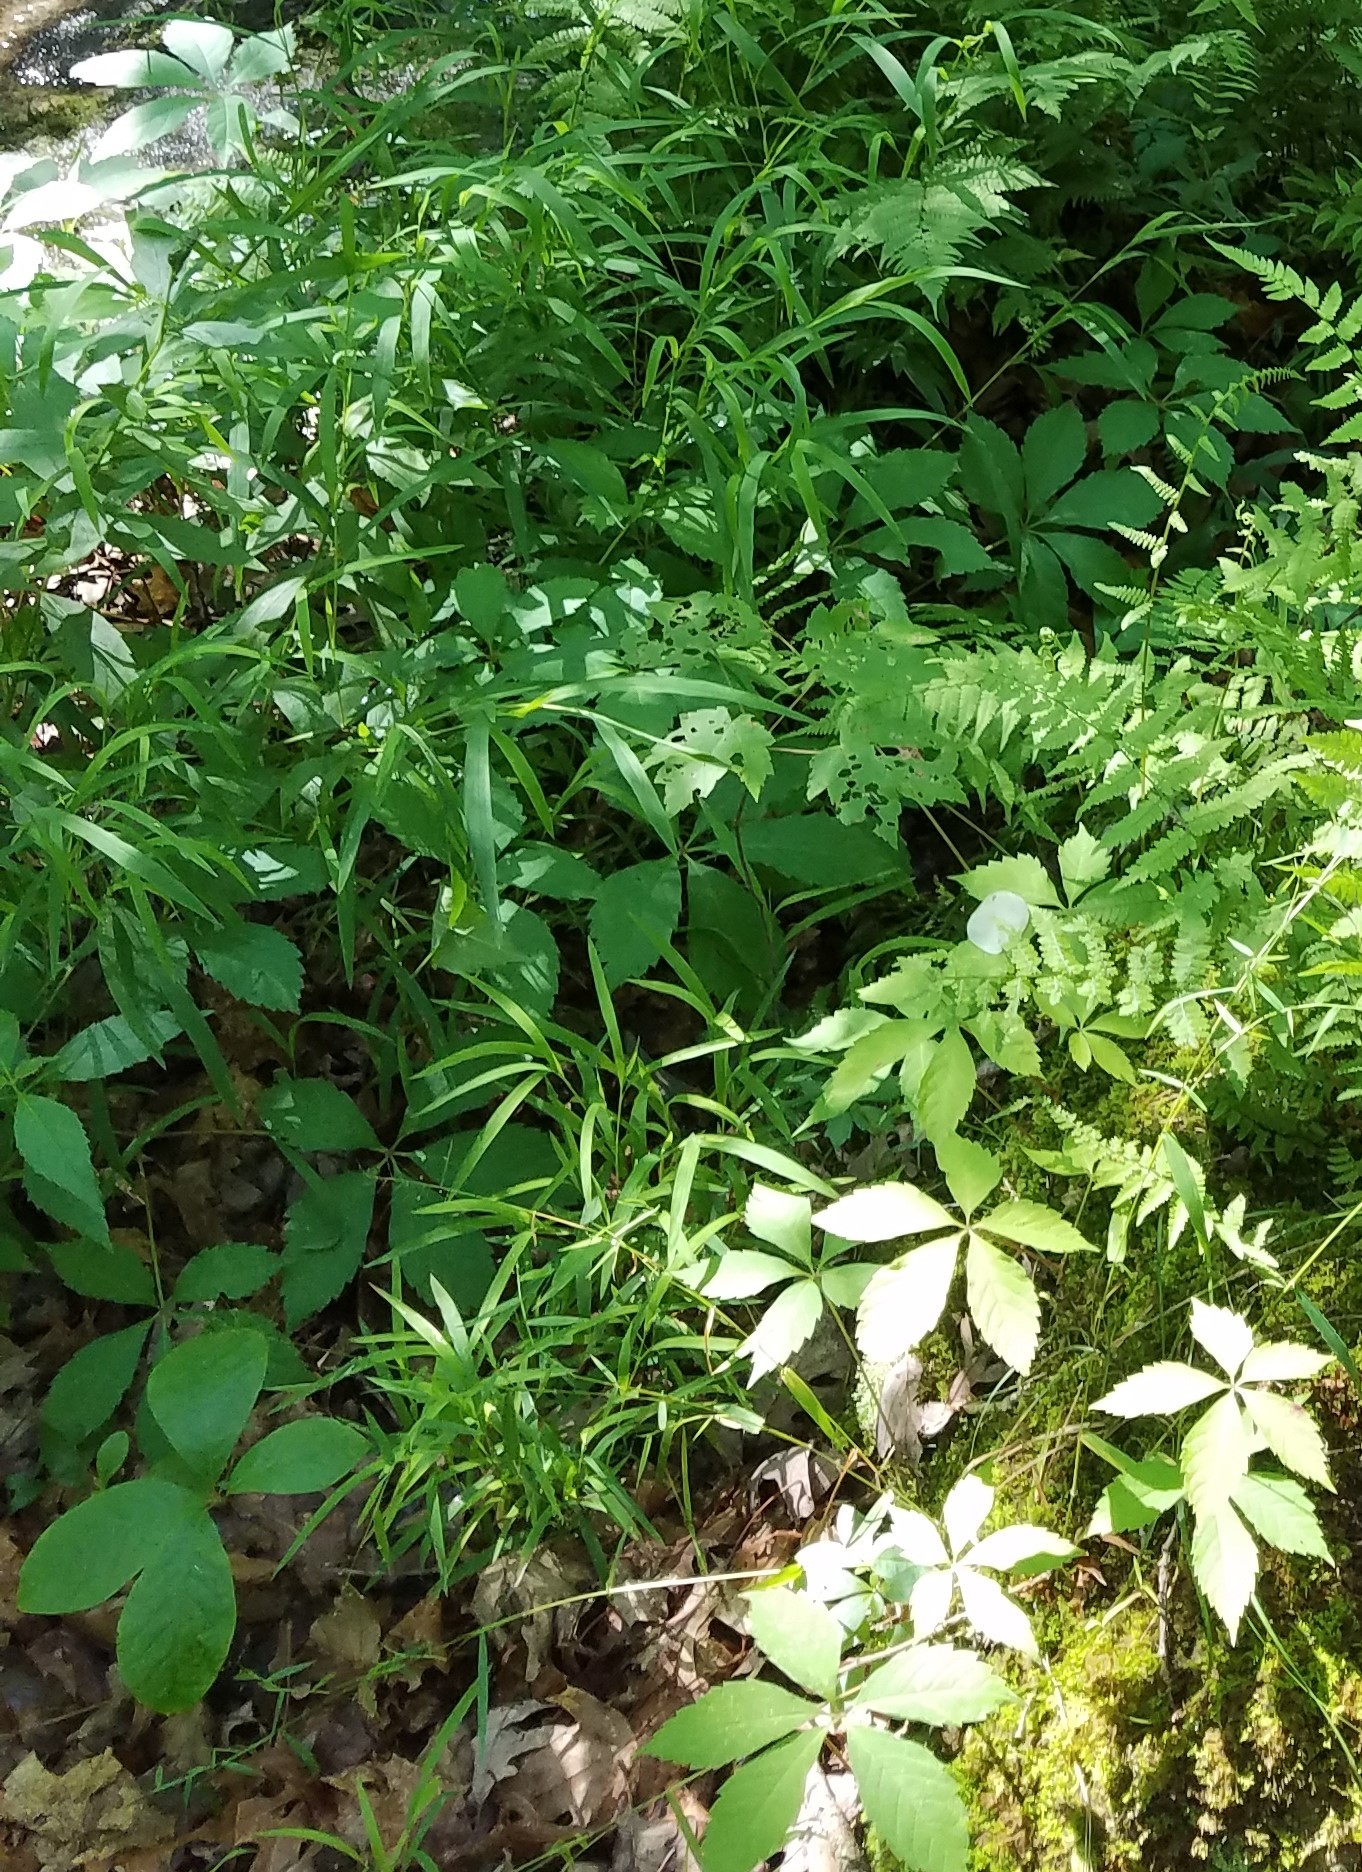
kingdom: Plantae
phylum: Tracheophyta
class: Magnoliopsida
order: Vitales
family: Vitaceae
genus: Parthenocissus
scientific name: Parthenocissus quinquefolia
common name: Virginia-creeper
